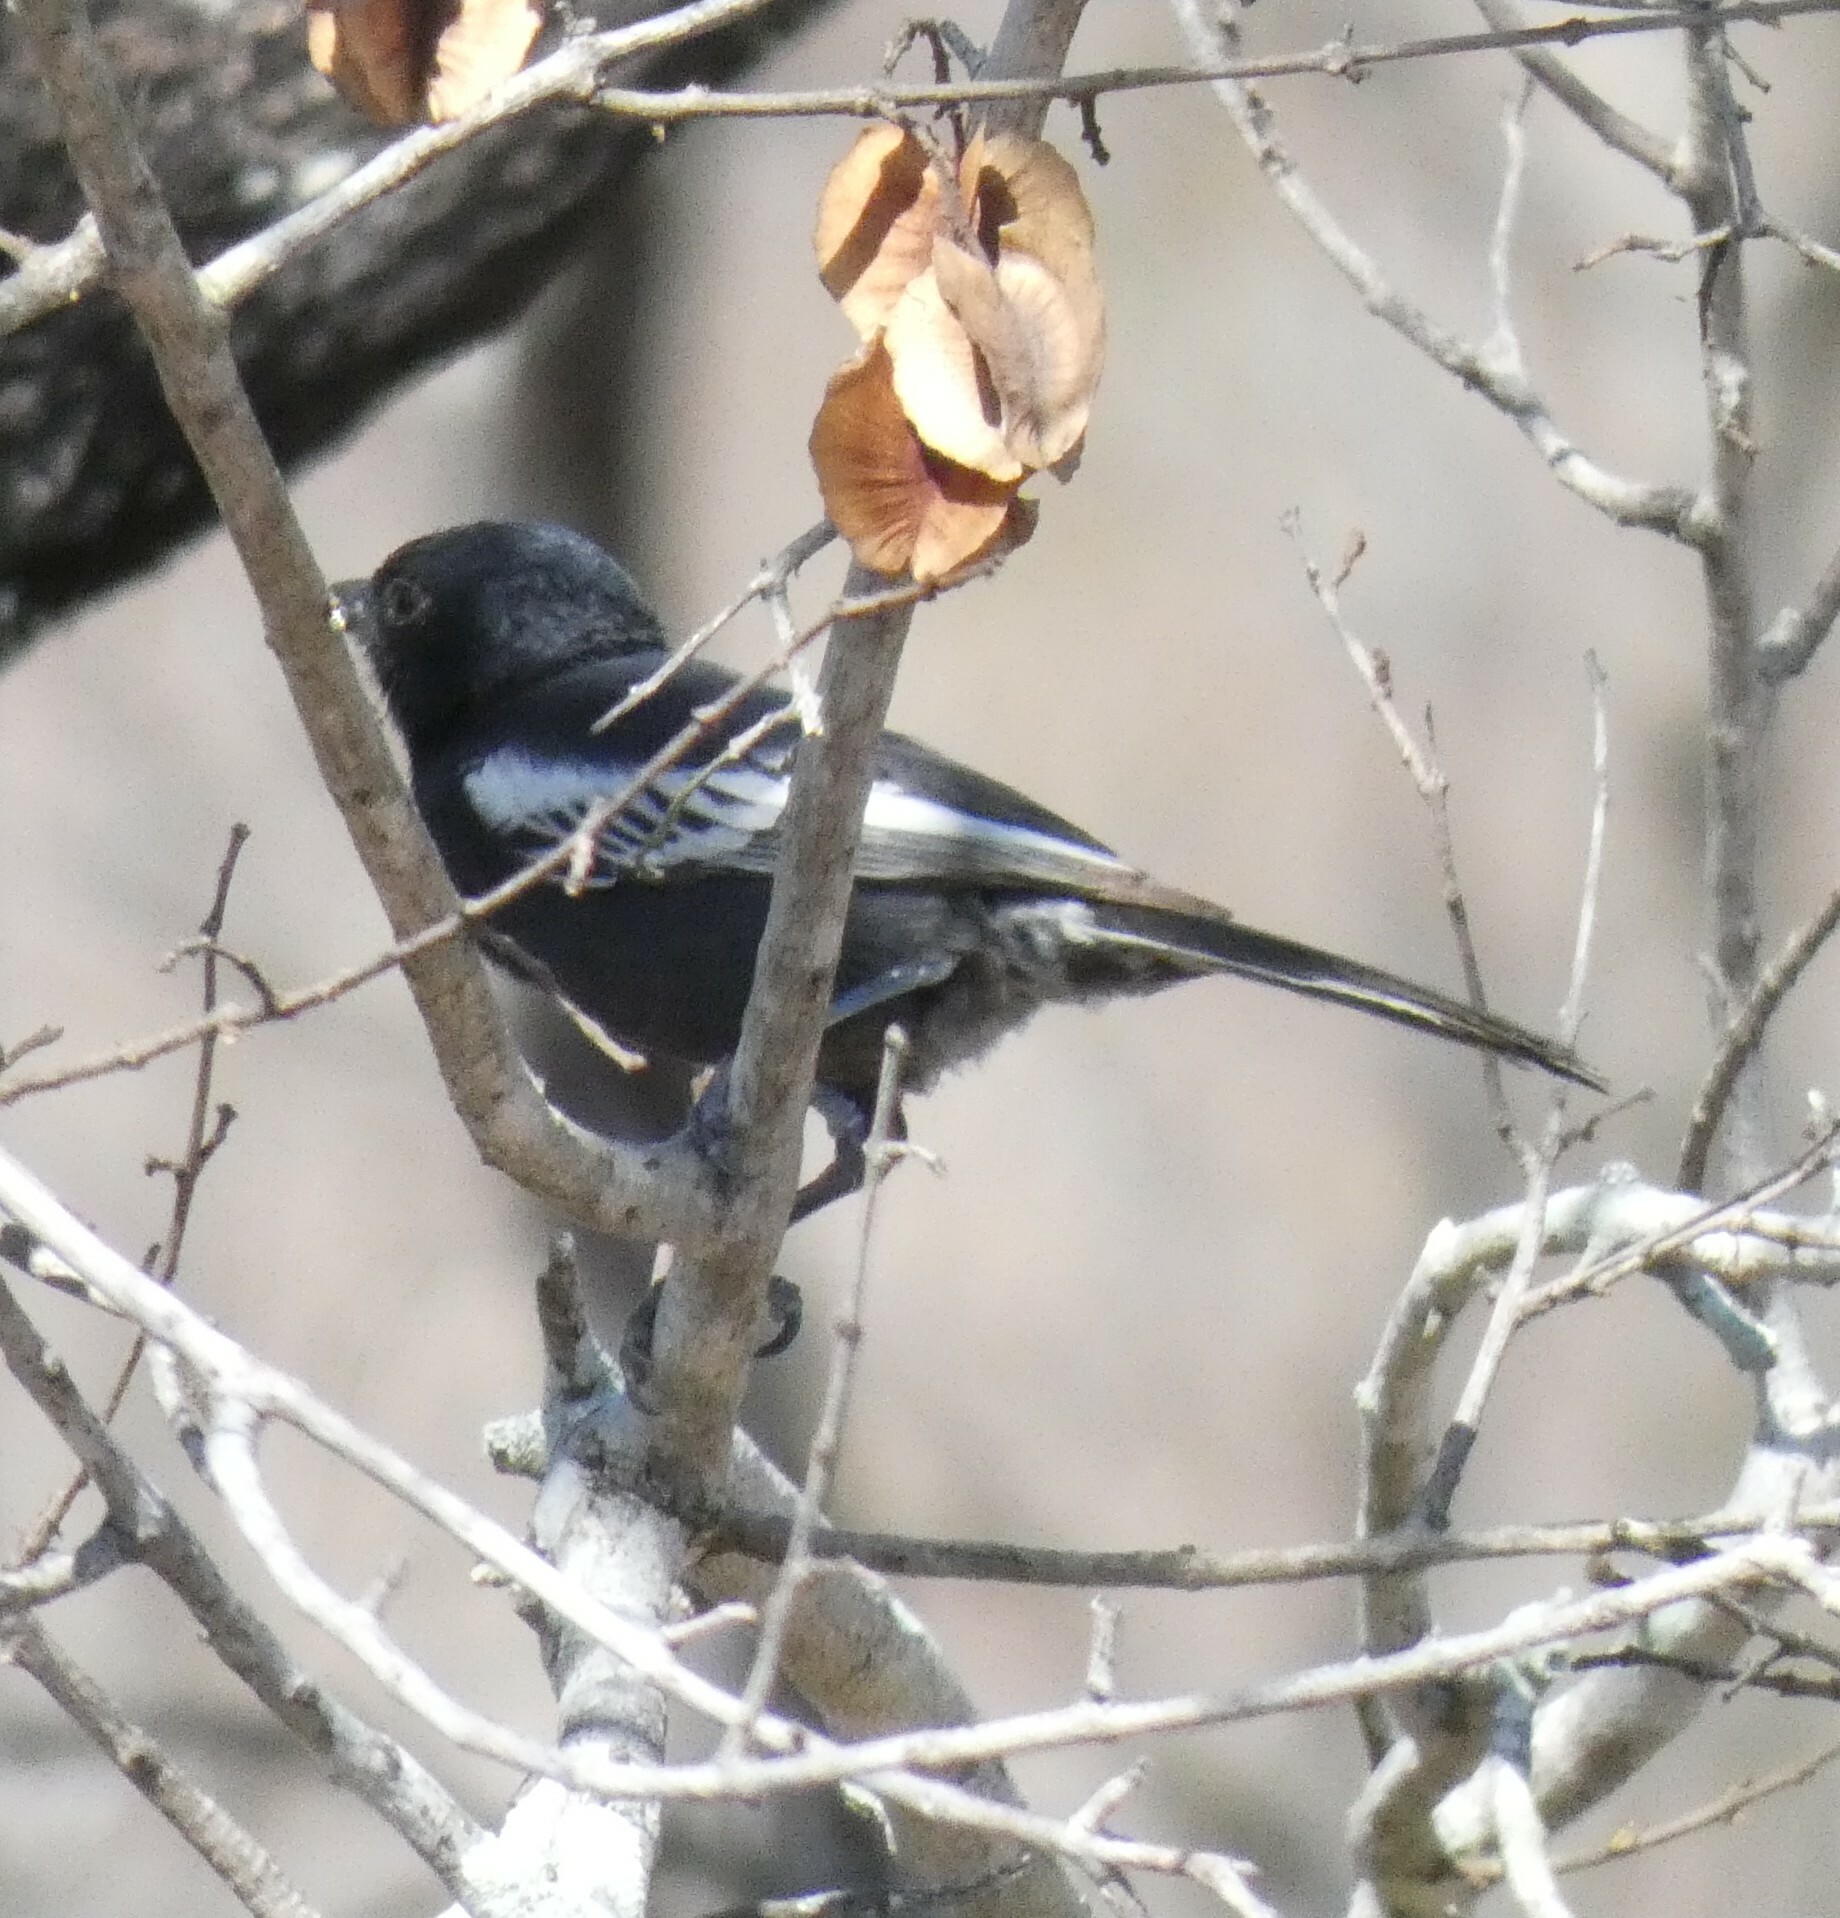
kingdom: Animalia
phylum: Chordata
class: Aves
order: Passeriformes
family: Paridae
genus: Parus
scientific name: Parus niger
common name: Southern black tit
